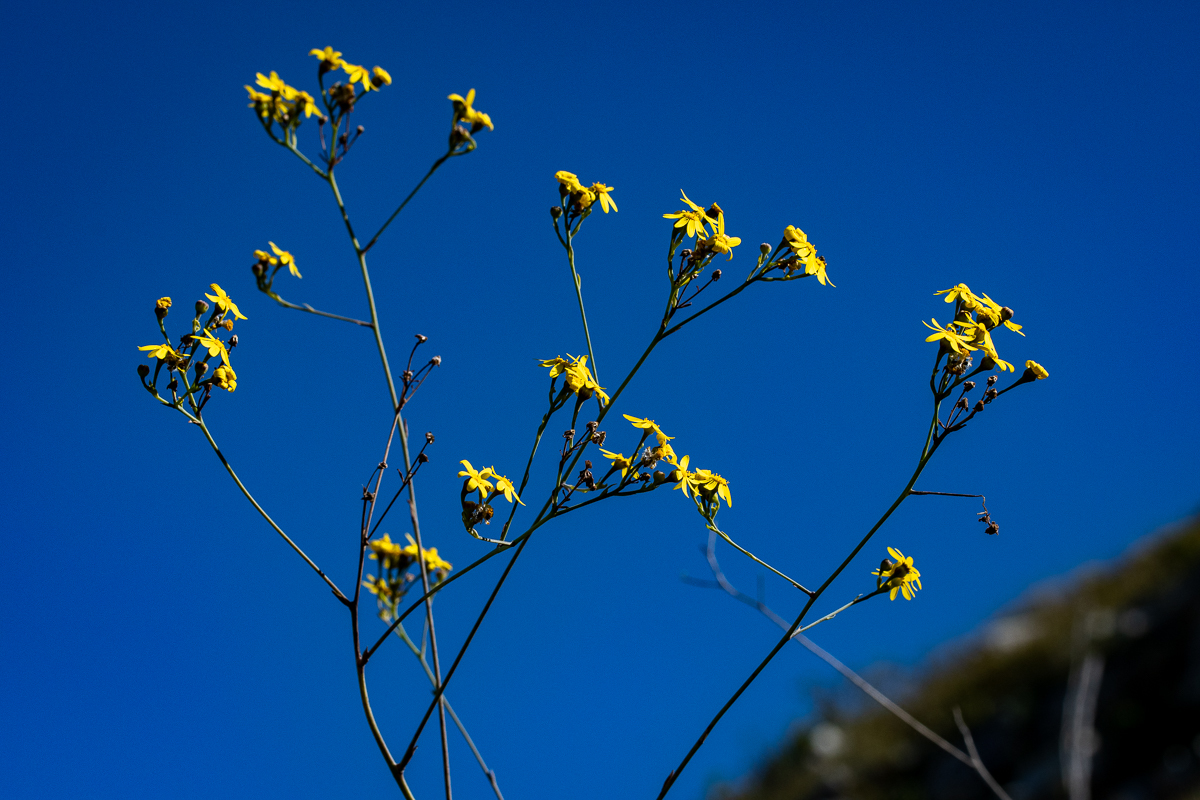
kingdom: Plantae
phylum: Tracheophyta
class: Magnoliopsida
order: Asterales
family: Asteraceae
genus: Othonna
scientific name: Othonna quinquedentata
